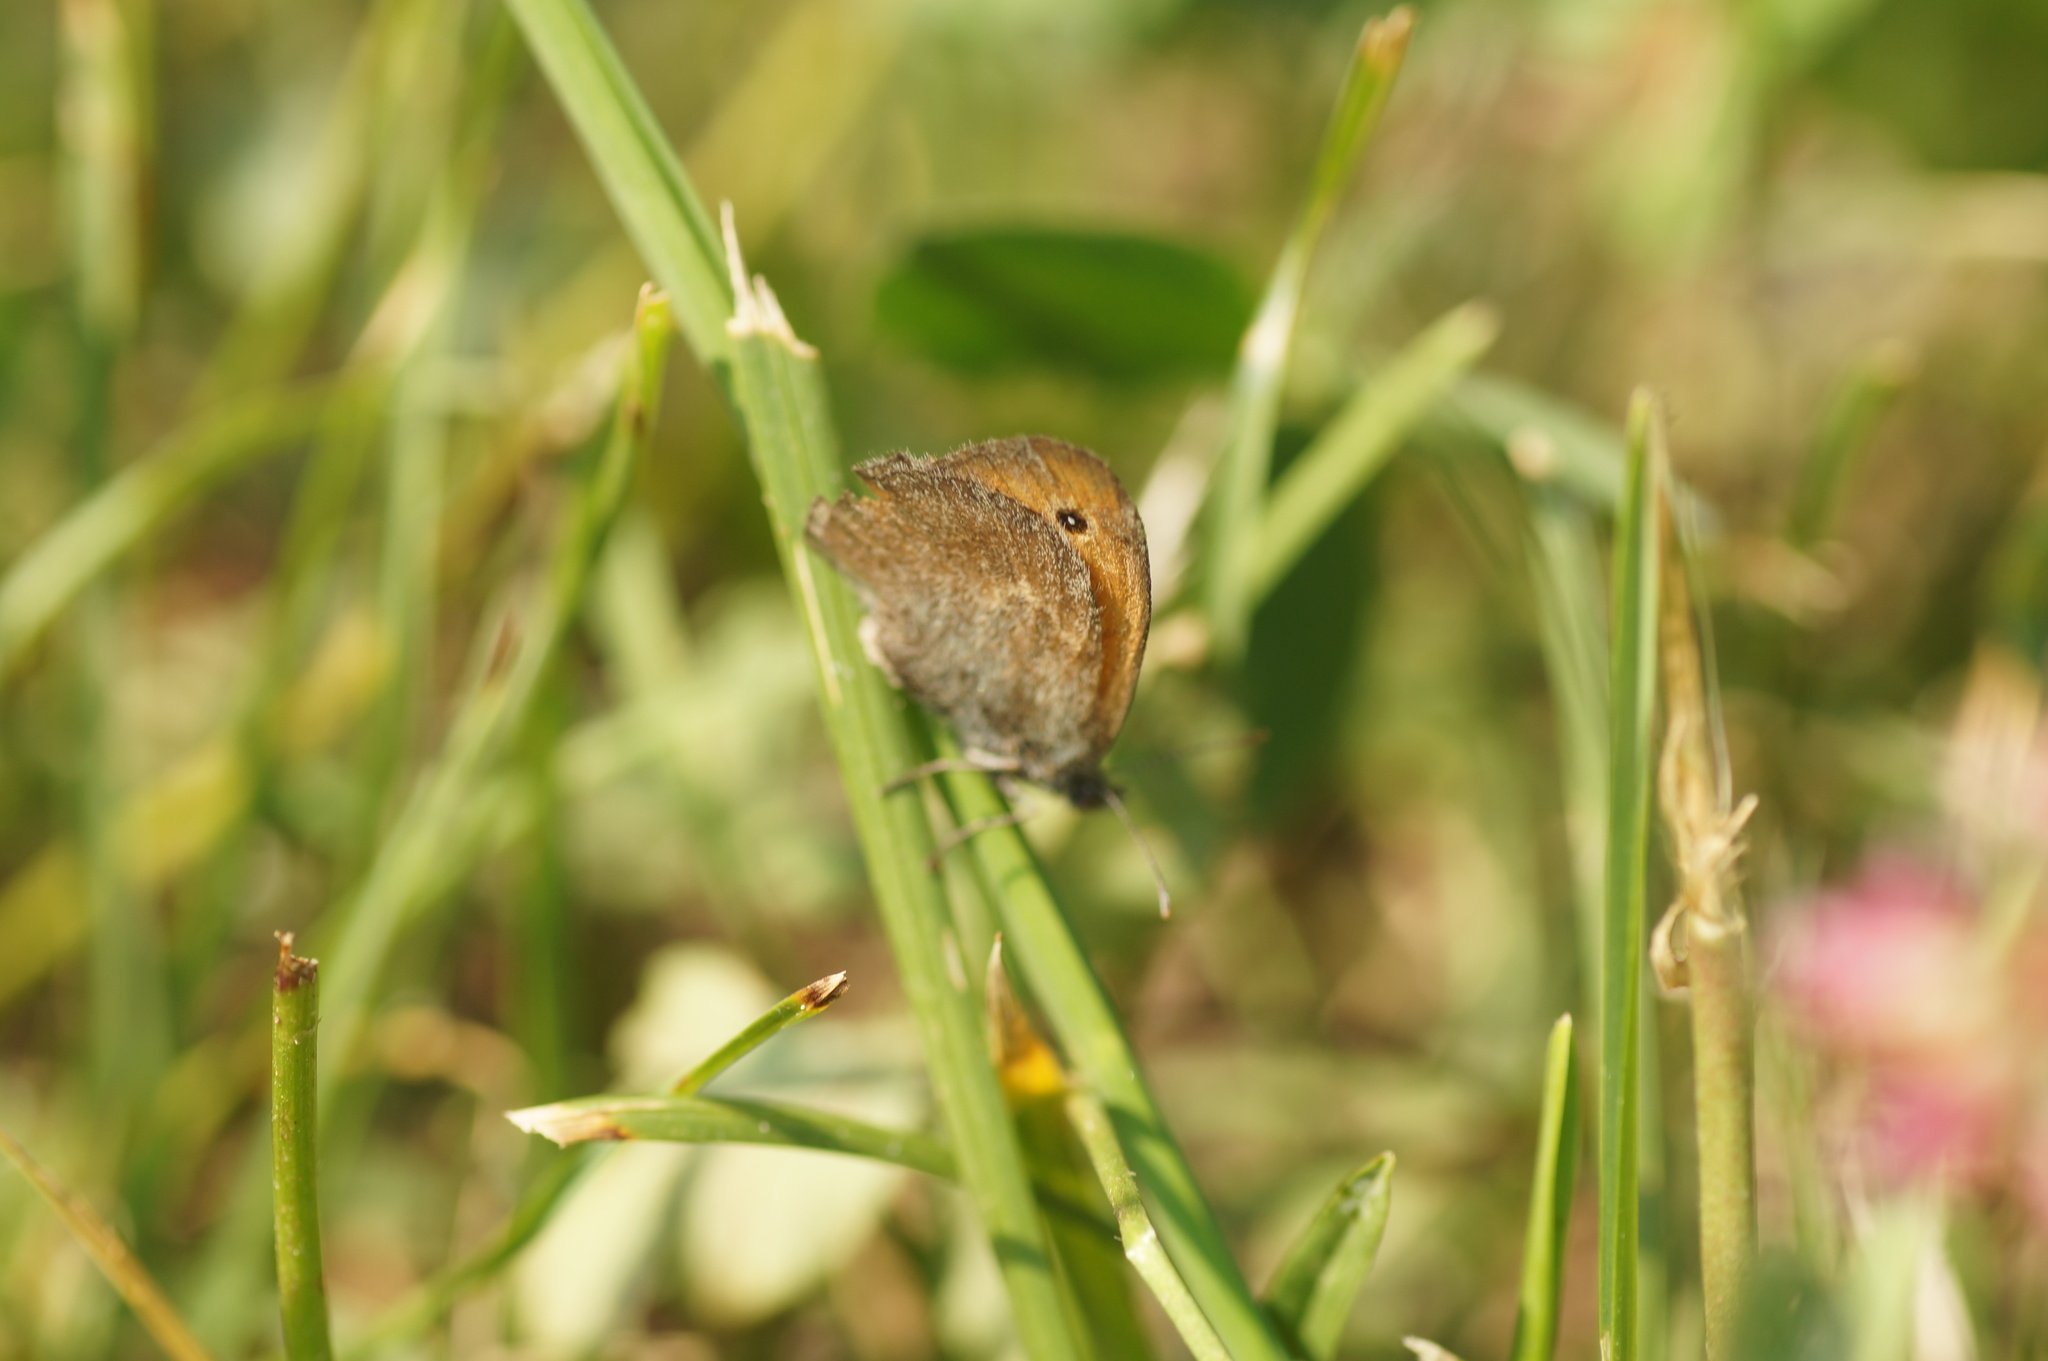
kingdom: Animalia
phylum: Arthropoda
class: Insecta
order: Lepidoptera
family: Nymphalidae
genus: Coenonympha
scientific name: Coenonympha pamphilus
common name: Small heath
